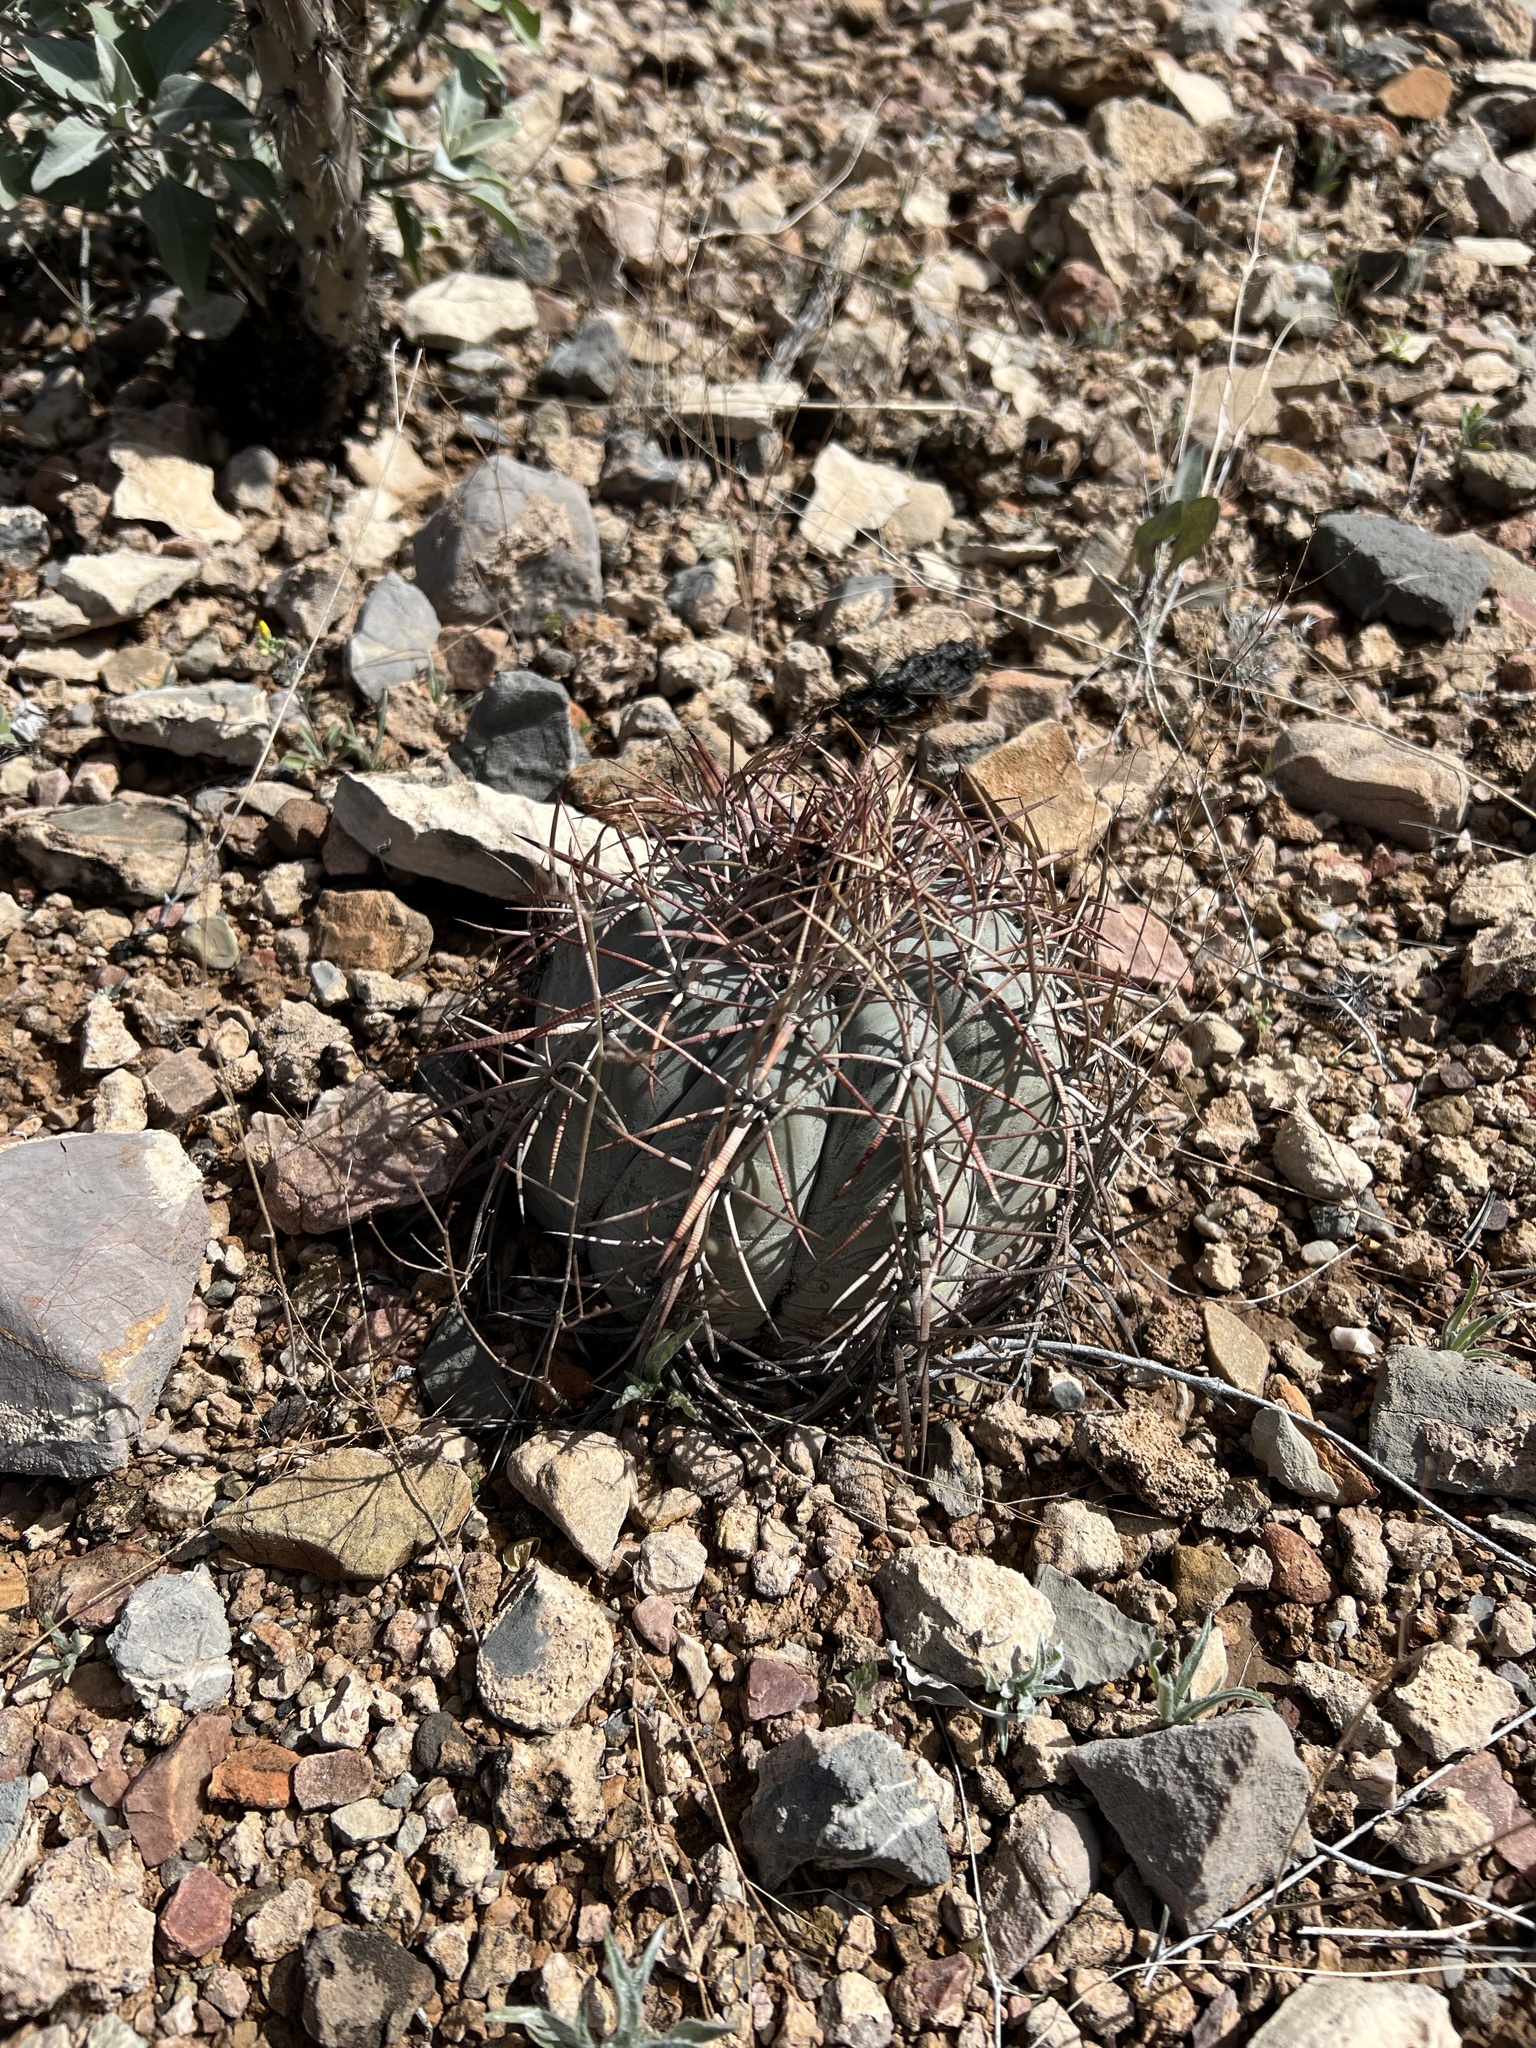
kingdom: Plantae
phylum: Tracheophyta
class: Magnoliopsida
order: Caryophyllales
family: Cactaceae
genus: Echinocactus
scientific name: Echinocactus horizonthalonius
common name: Devilshead
